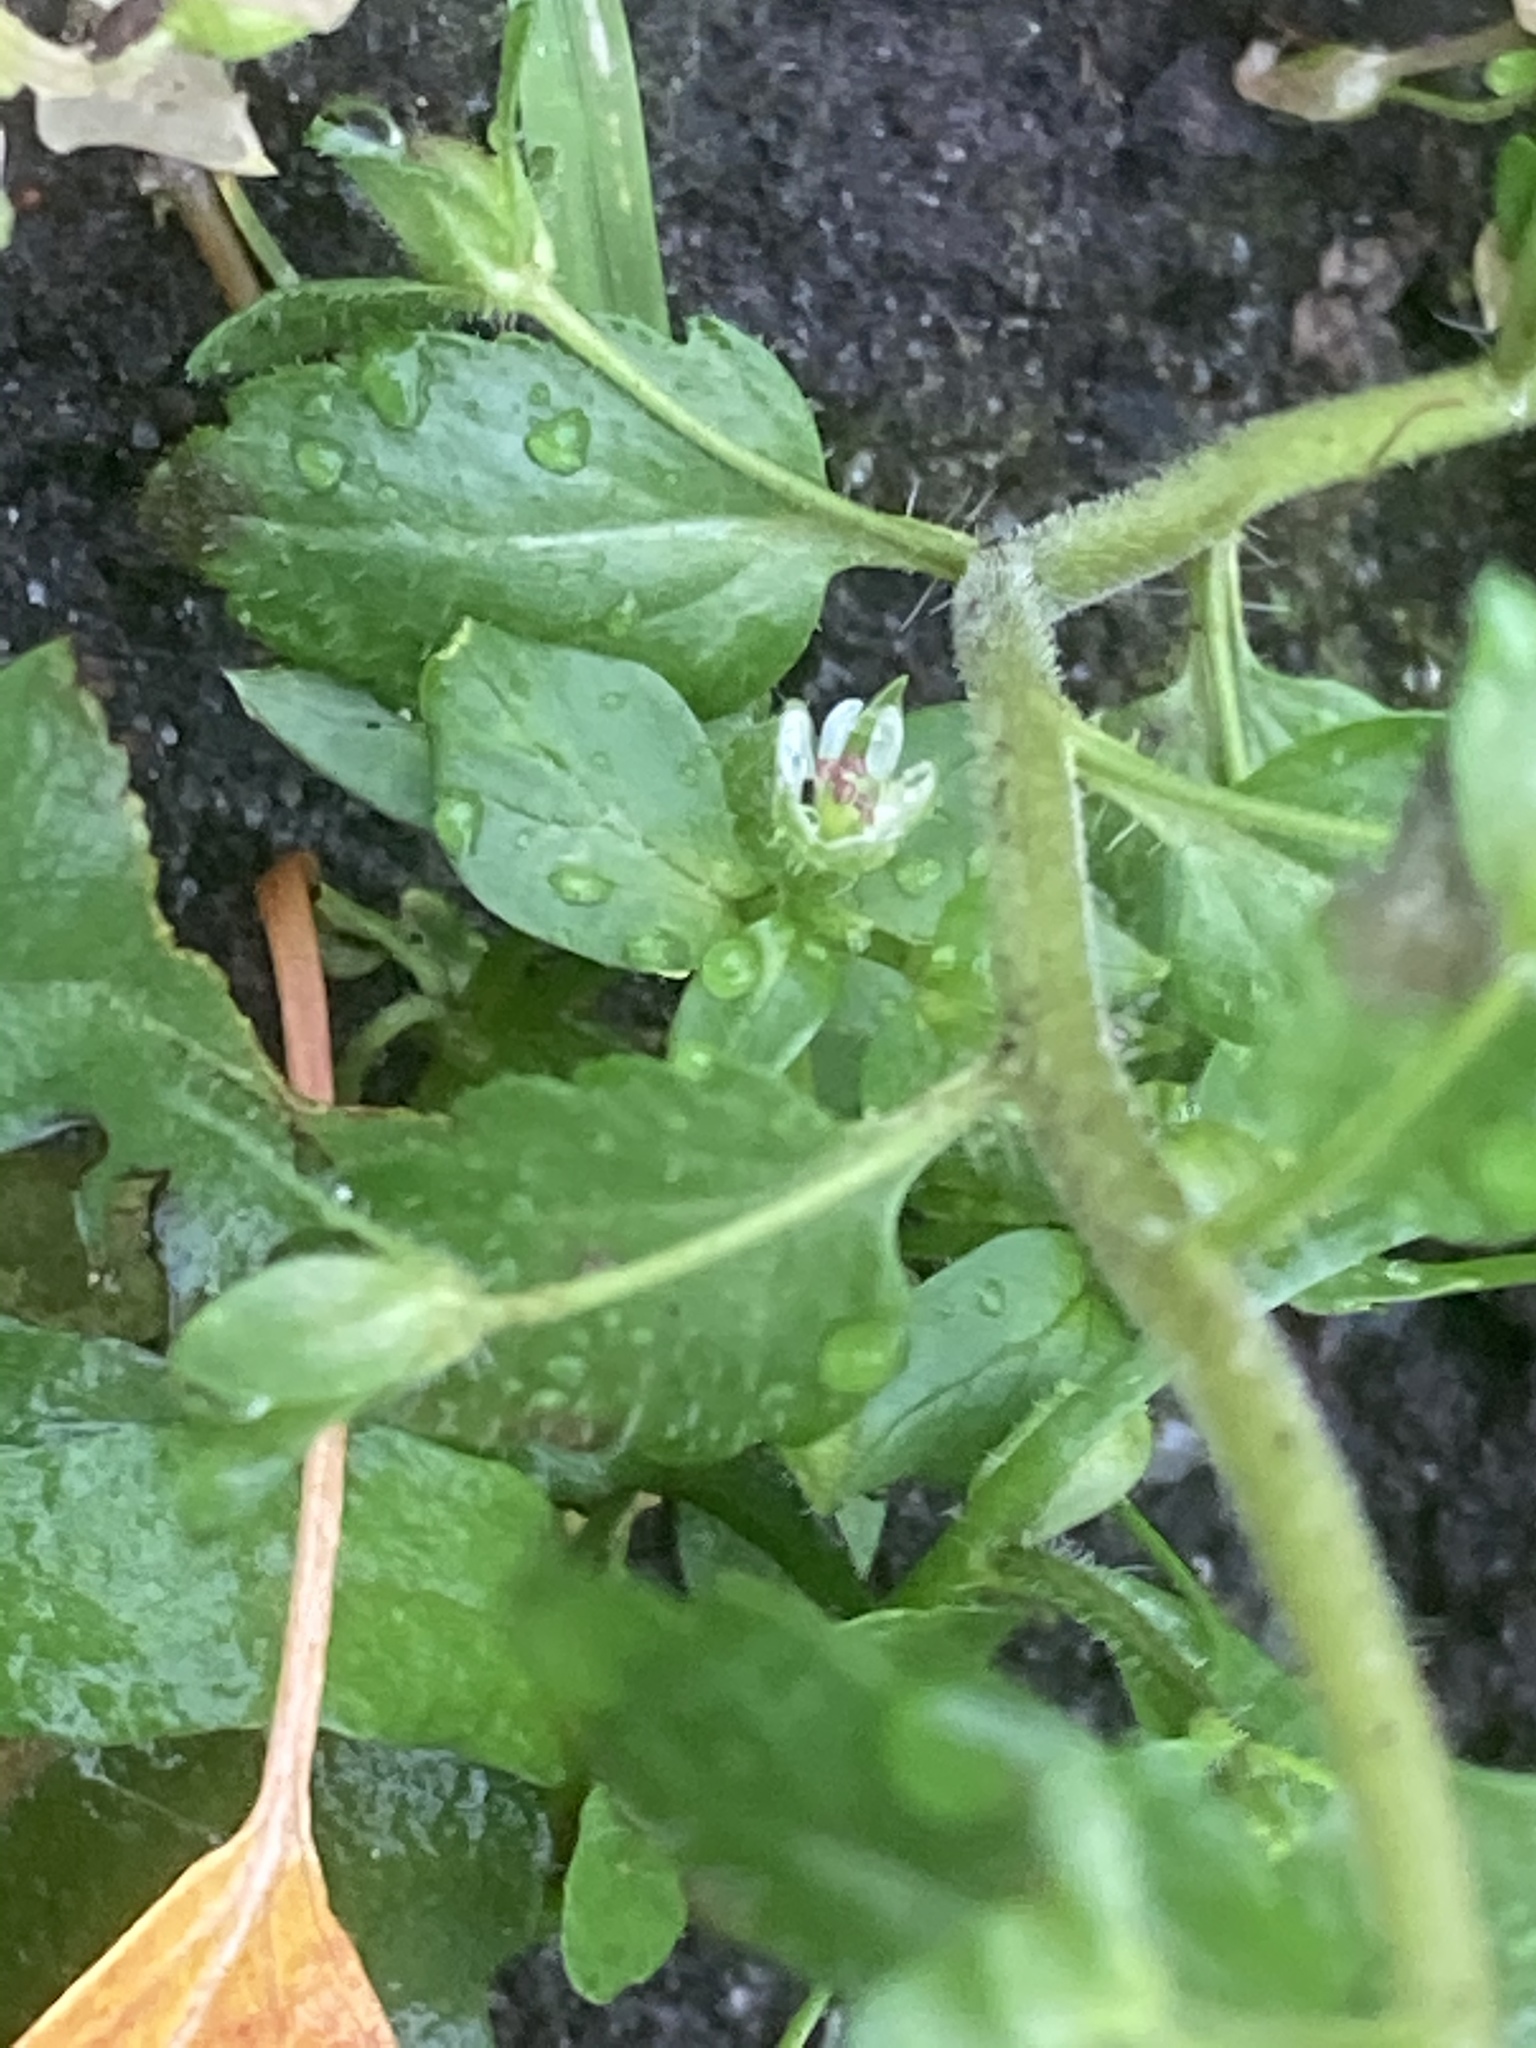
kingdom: Plantae
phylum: Tracheophyta
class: Magnoliopsida
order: Lamiales
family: Plantaginaceae
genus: Veronica
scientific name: Veronica agrestis
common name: Green field-speedwell
